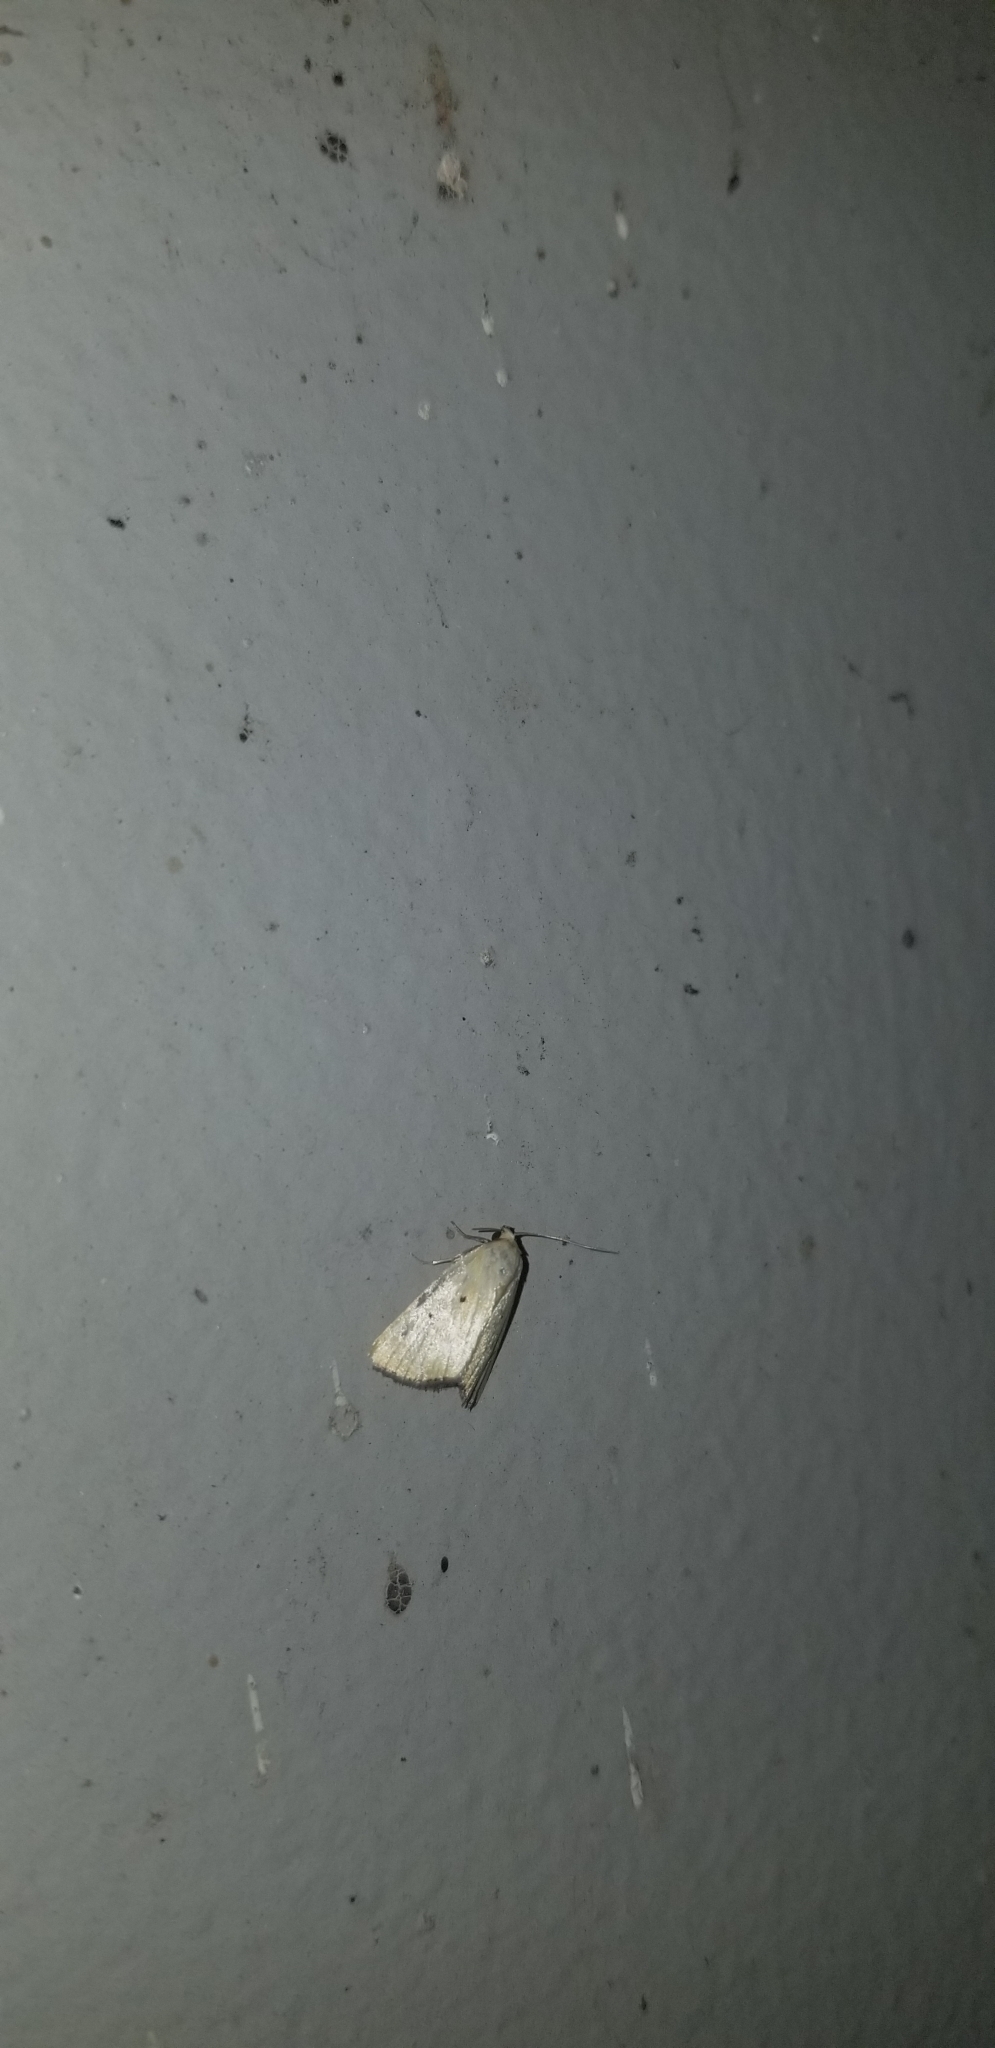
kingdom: Animalia
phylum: Arthropoda
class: Insecta
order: Lepidoptera
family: Noctuidae
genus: Marimatha
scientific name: Marimatha nigrofimbria
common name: Black-bordered lemon moth
